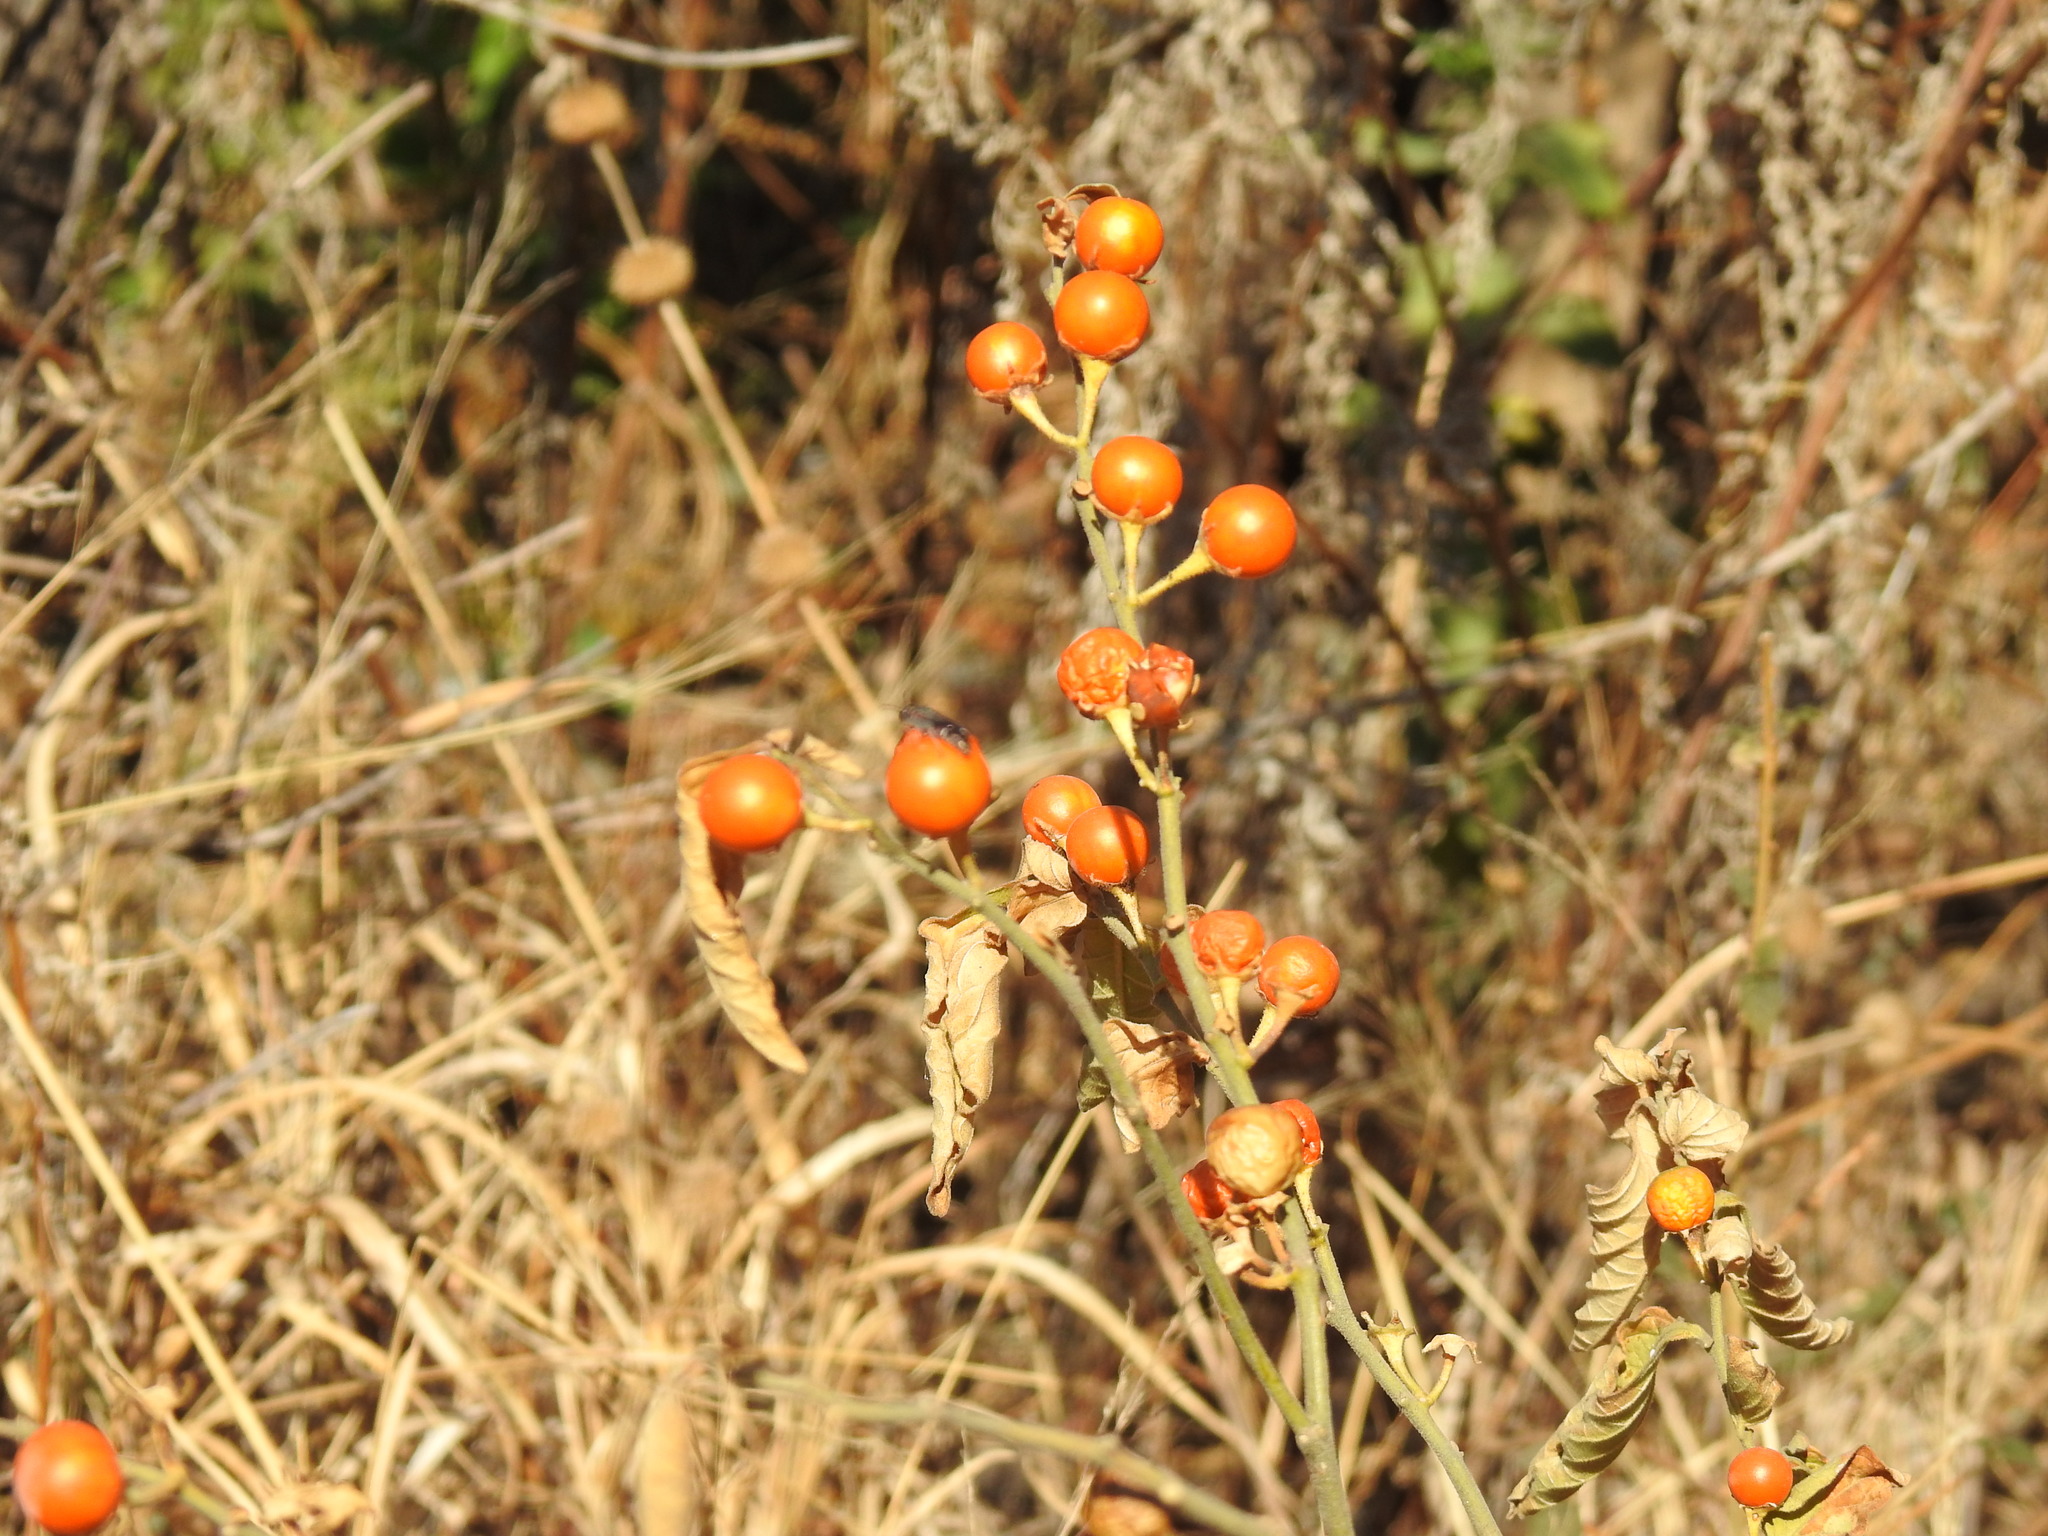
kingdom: Plantae
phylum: Tracheophyta
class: Magnoliopsida
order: Solanales
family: Solanaceae
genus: Solanum
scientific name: Solanum pseudocapsicum
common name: Jerusalem cherry
